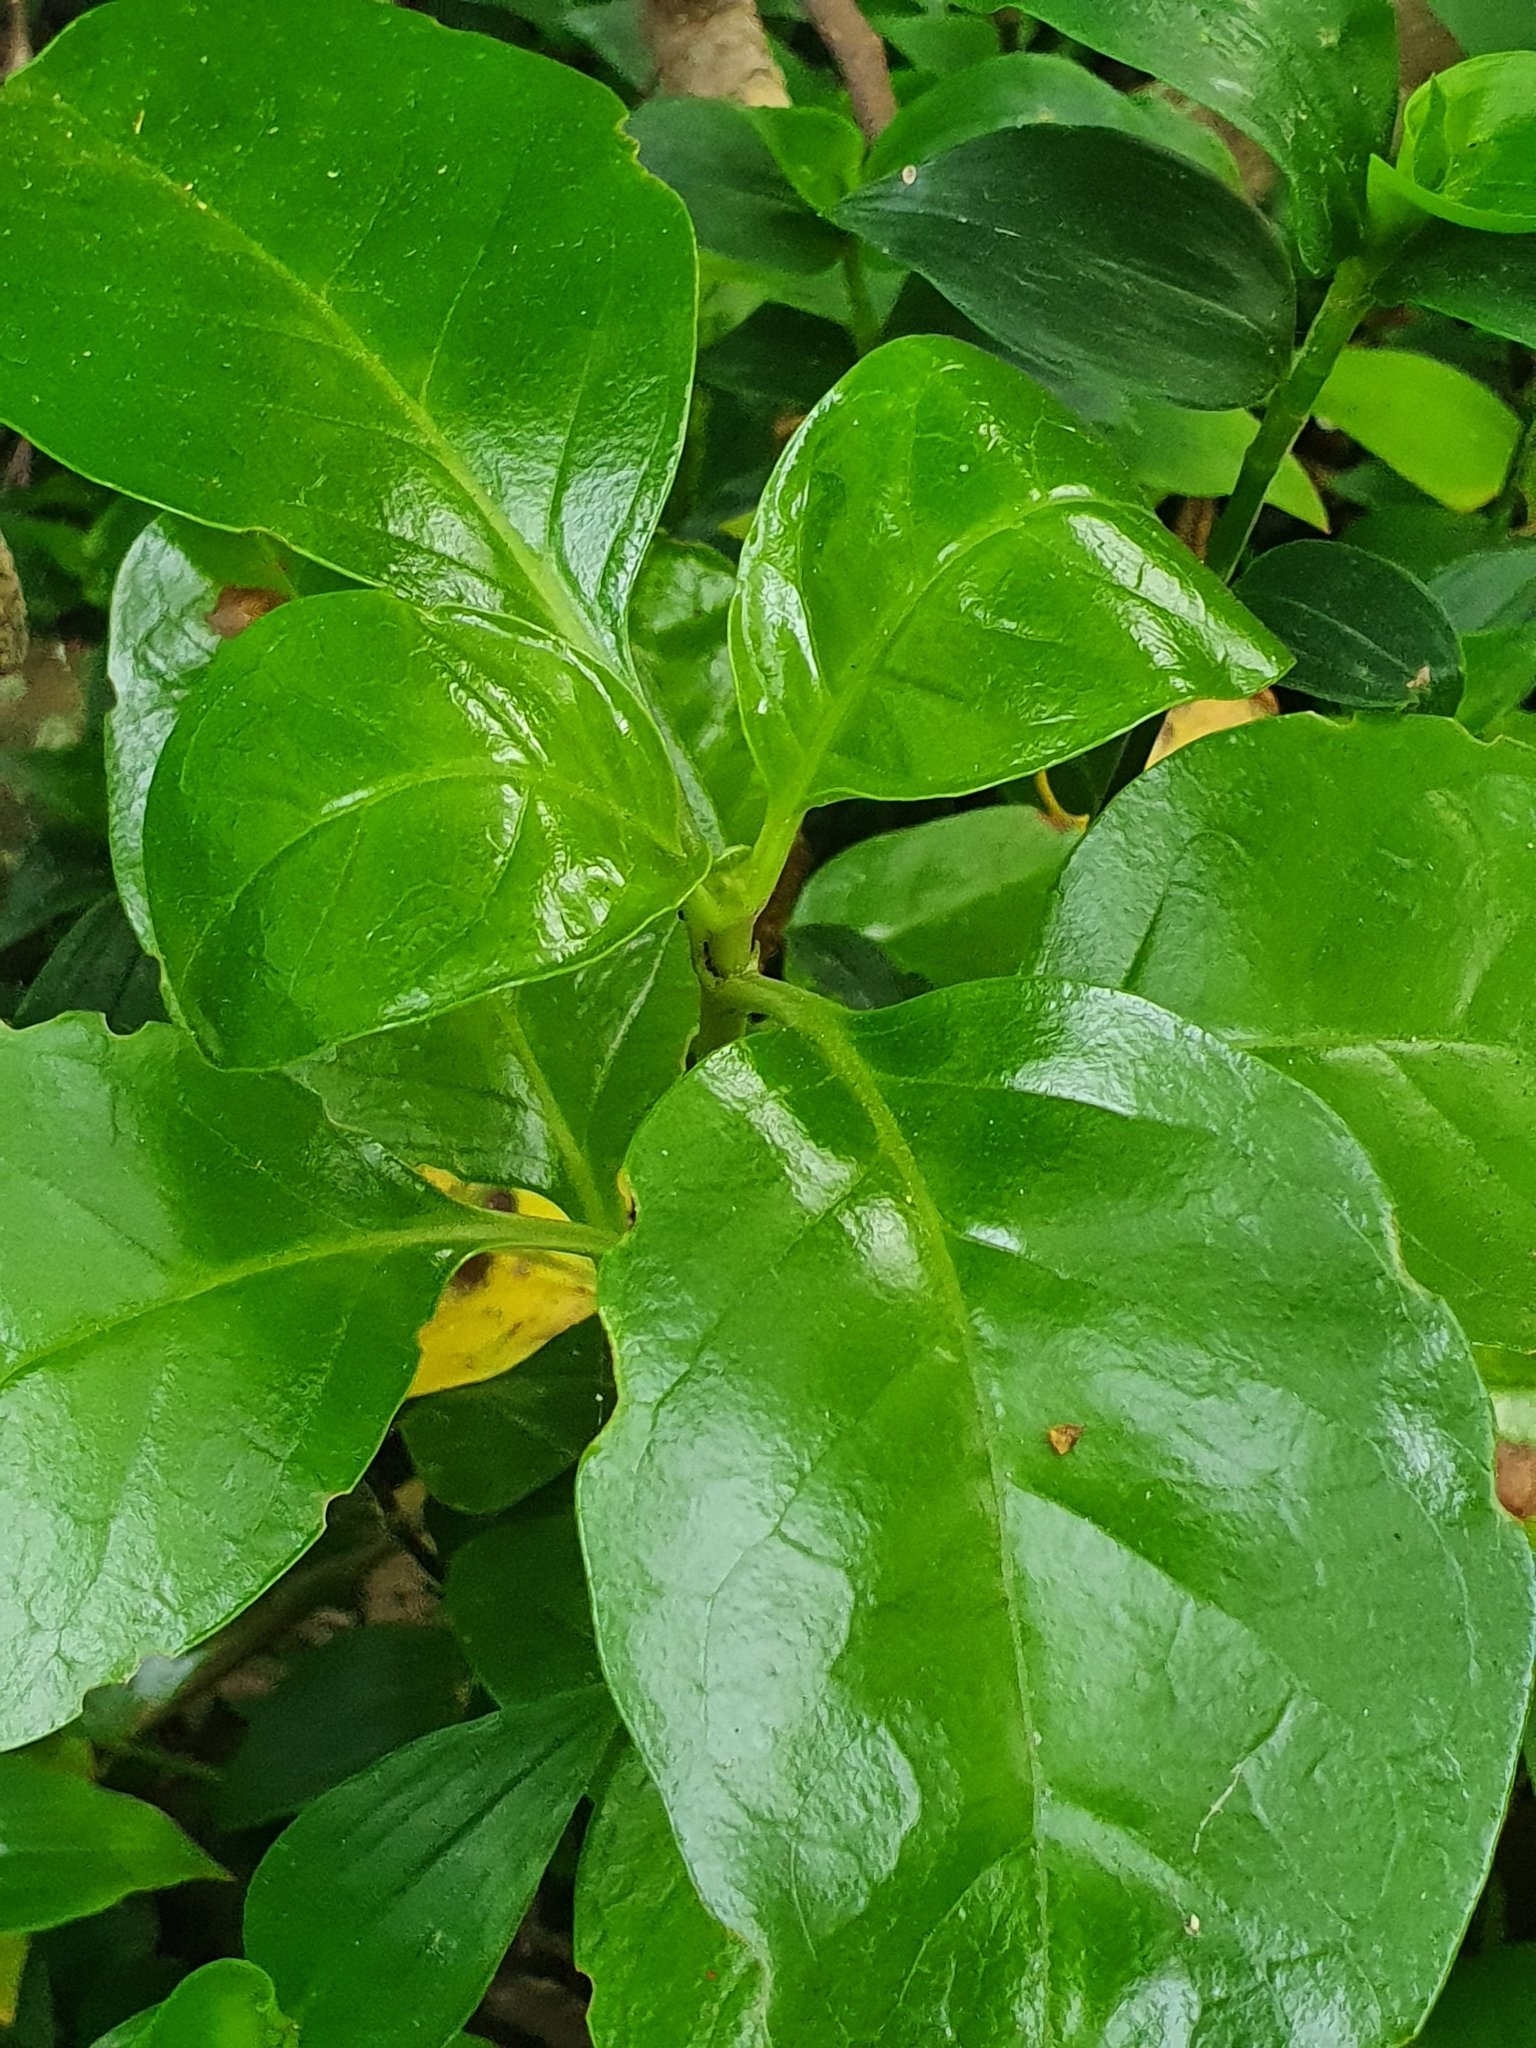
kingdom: Plantae
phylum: Tracheophyta
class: Magnoliopsida
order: Gentianales
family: Rubiaceae
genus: Coprosma
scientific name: Coprosma repens
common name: Tree bedstraw
